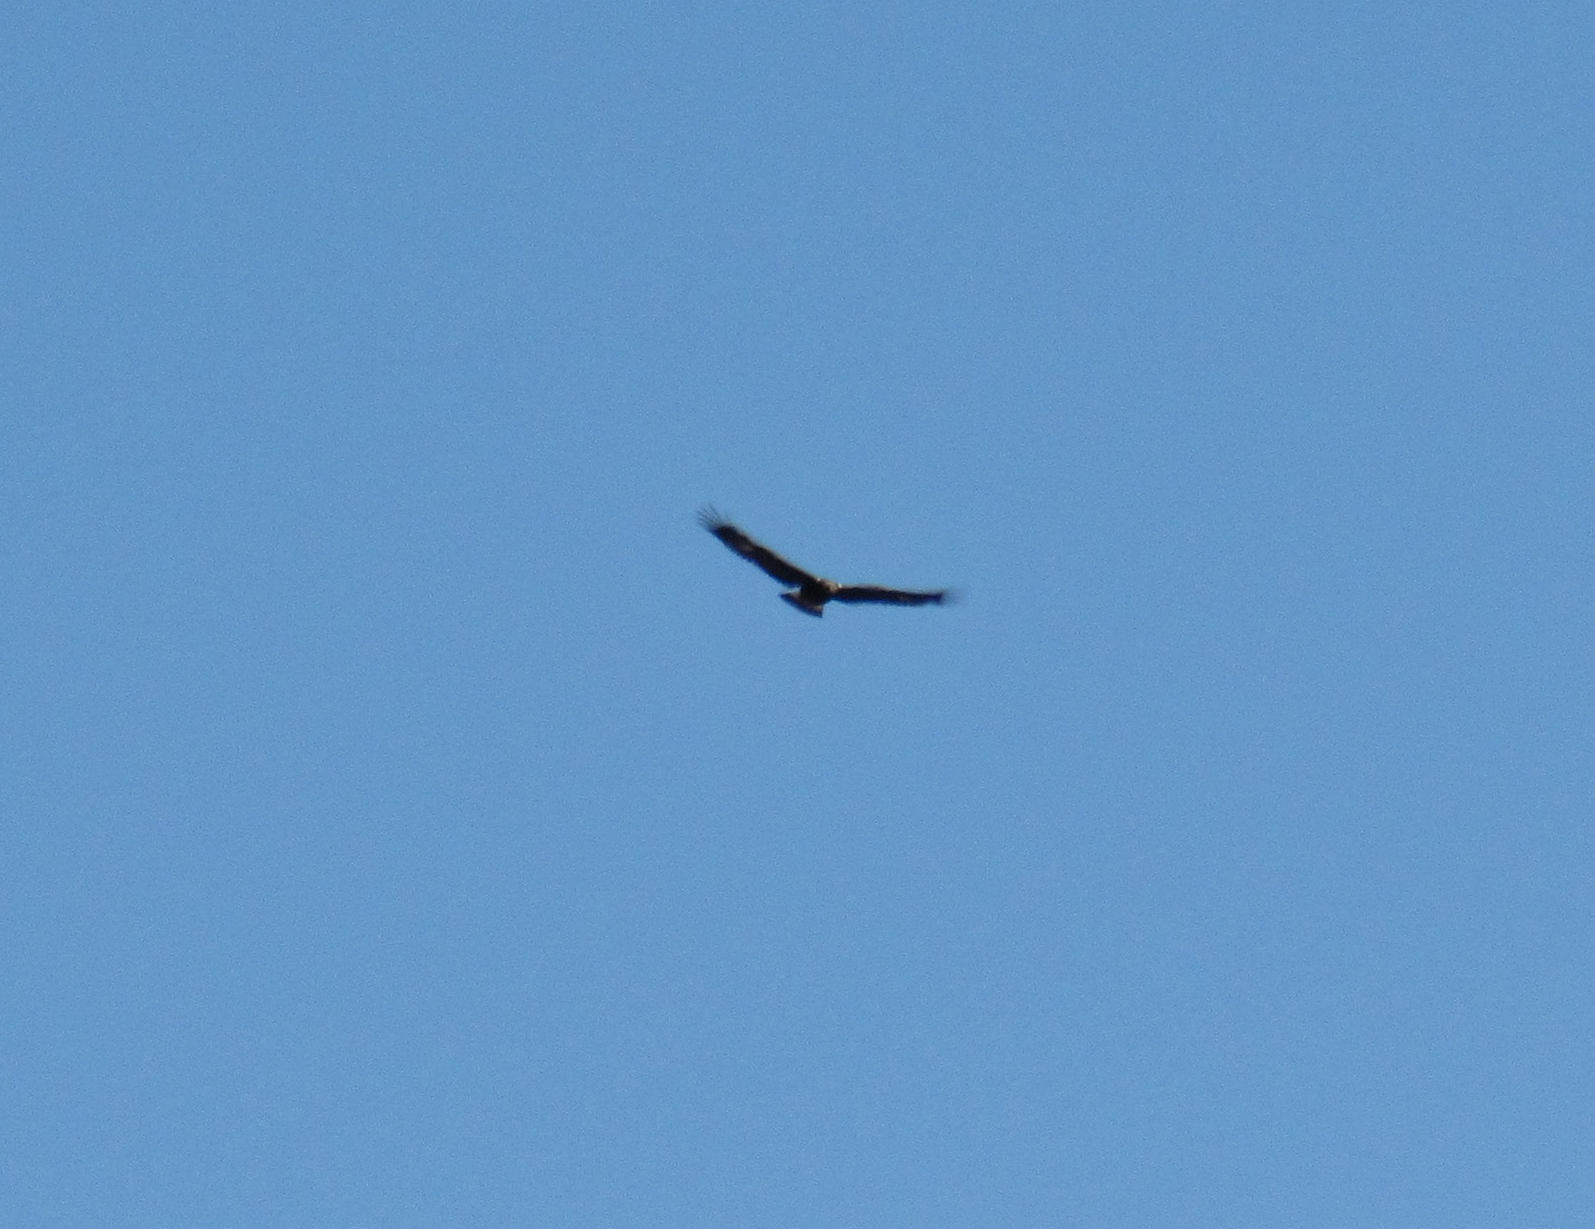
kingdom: Animalia
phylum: Chordata
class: Aves
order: Accipitriformes
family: Accipitridae
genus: Aquila
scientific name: Aquila chrysaetos
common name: Golden eagle
